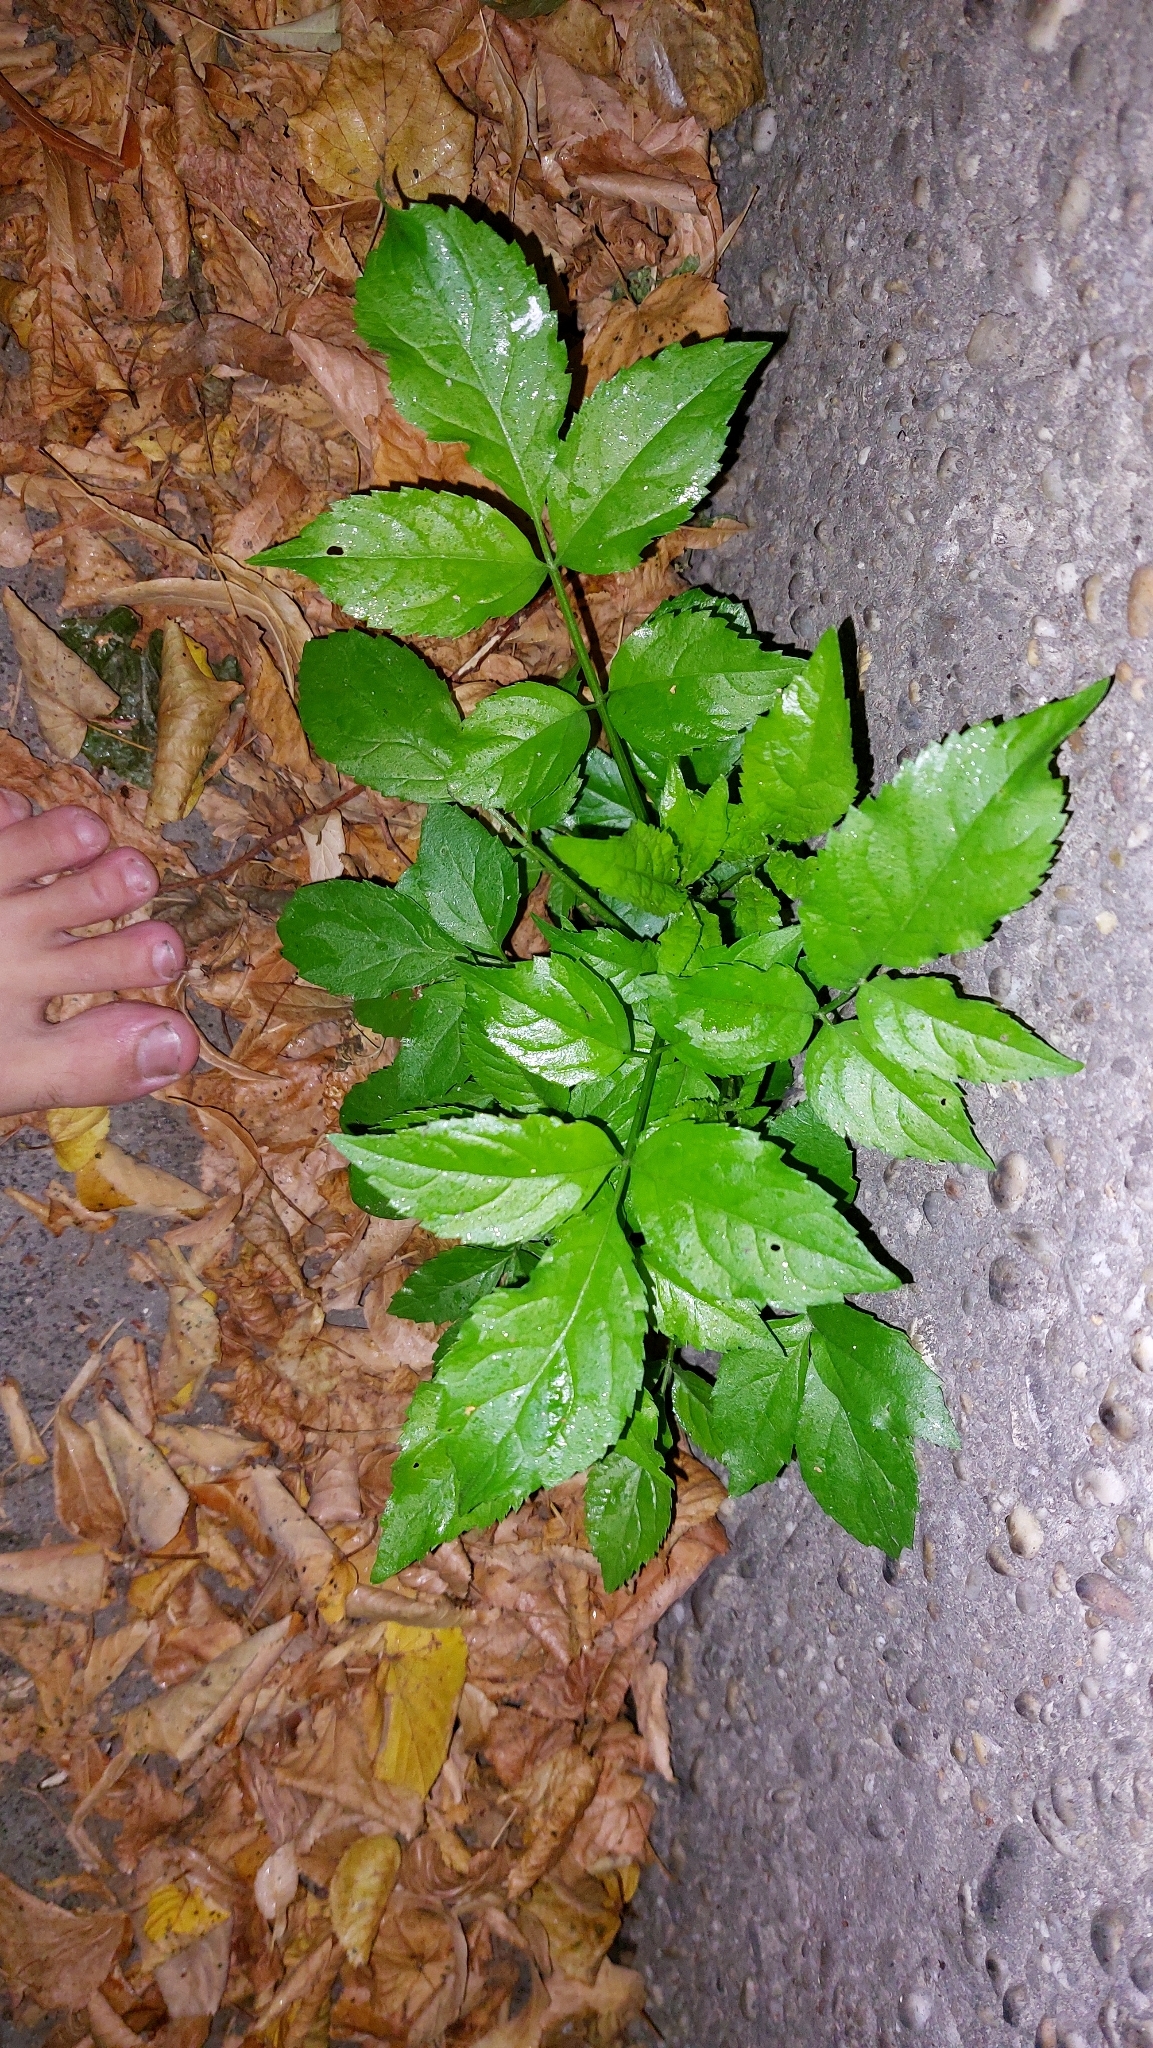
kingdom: Plantae
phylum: Tracheophyta
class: Magnoliopsida
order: Dipsacales
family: Viburnaceae
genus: Sambucus
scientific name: Sambucus nigra
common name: Elder
